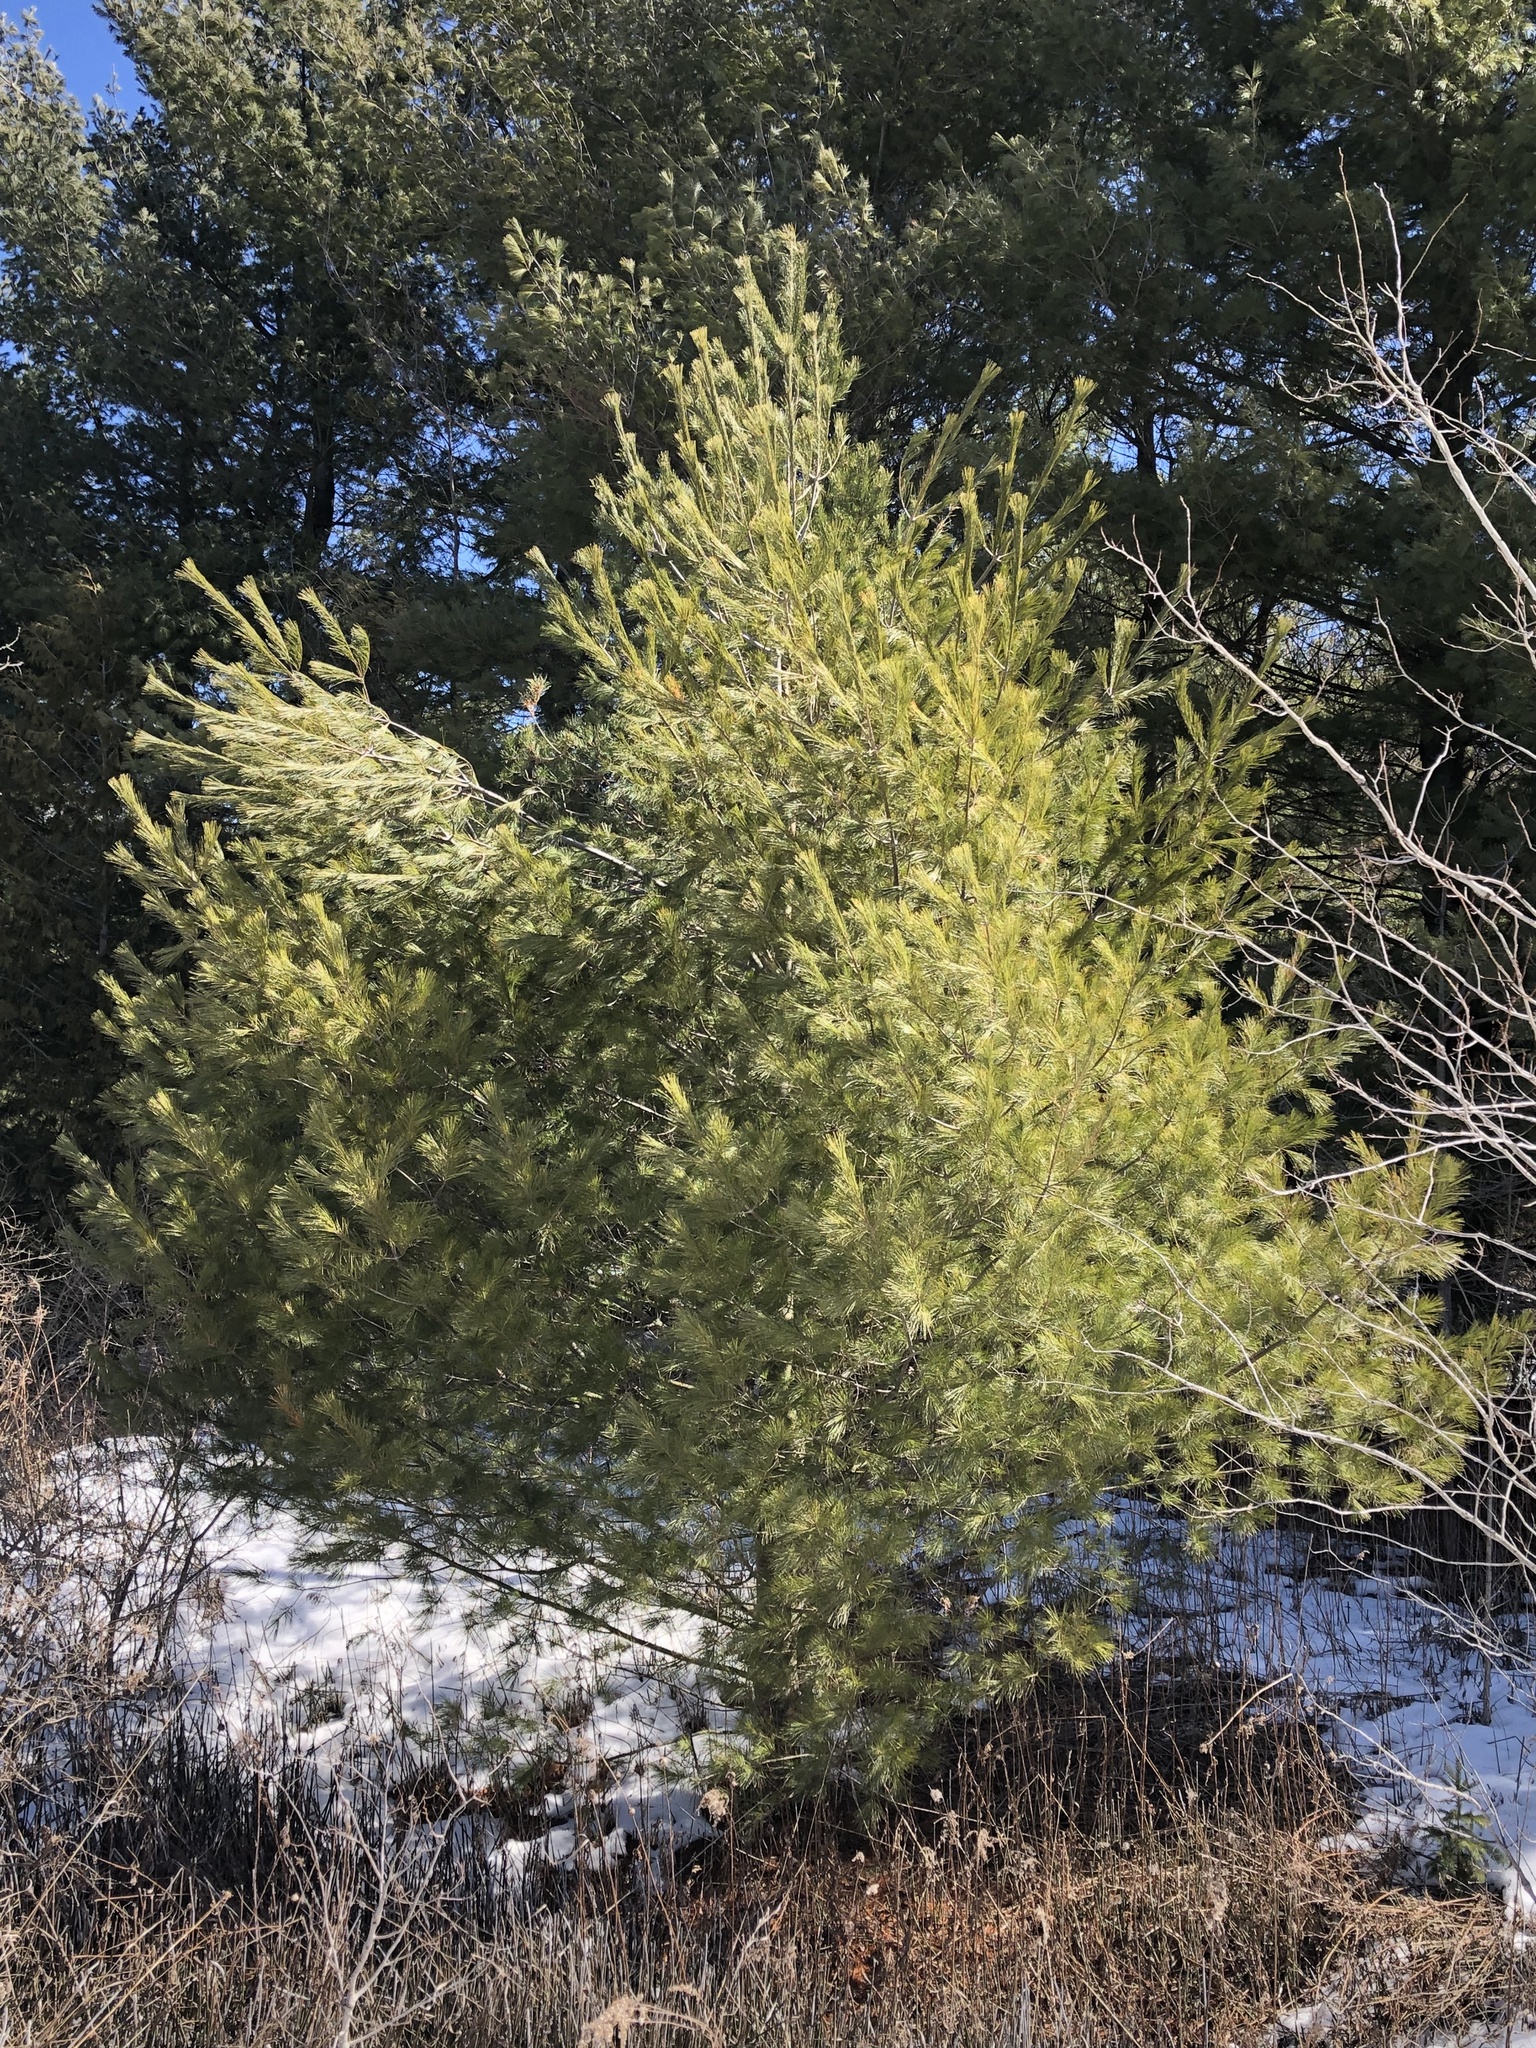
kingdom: Plantae
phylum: Tracheophyta
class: Pinopsida
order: Pinales
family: Pinaceae
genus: Pinus
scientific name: Pinus strobus
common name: Weymouth pine
